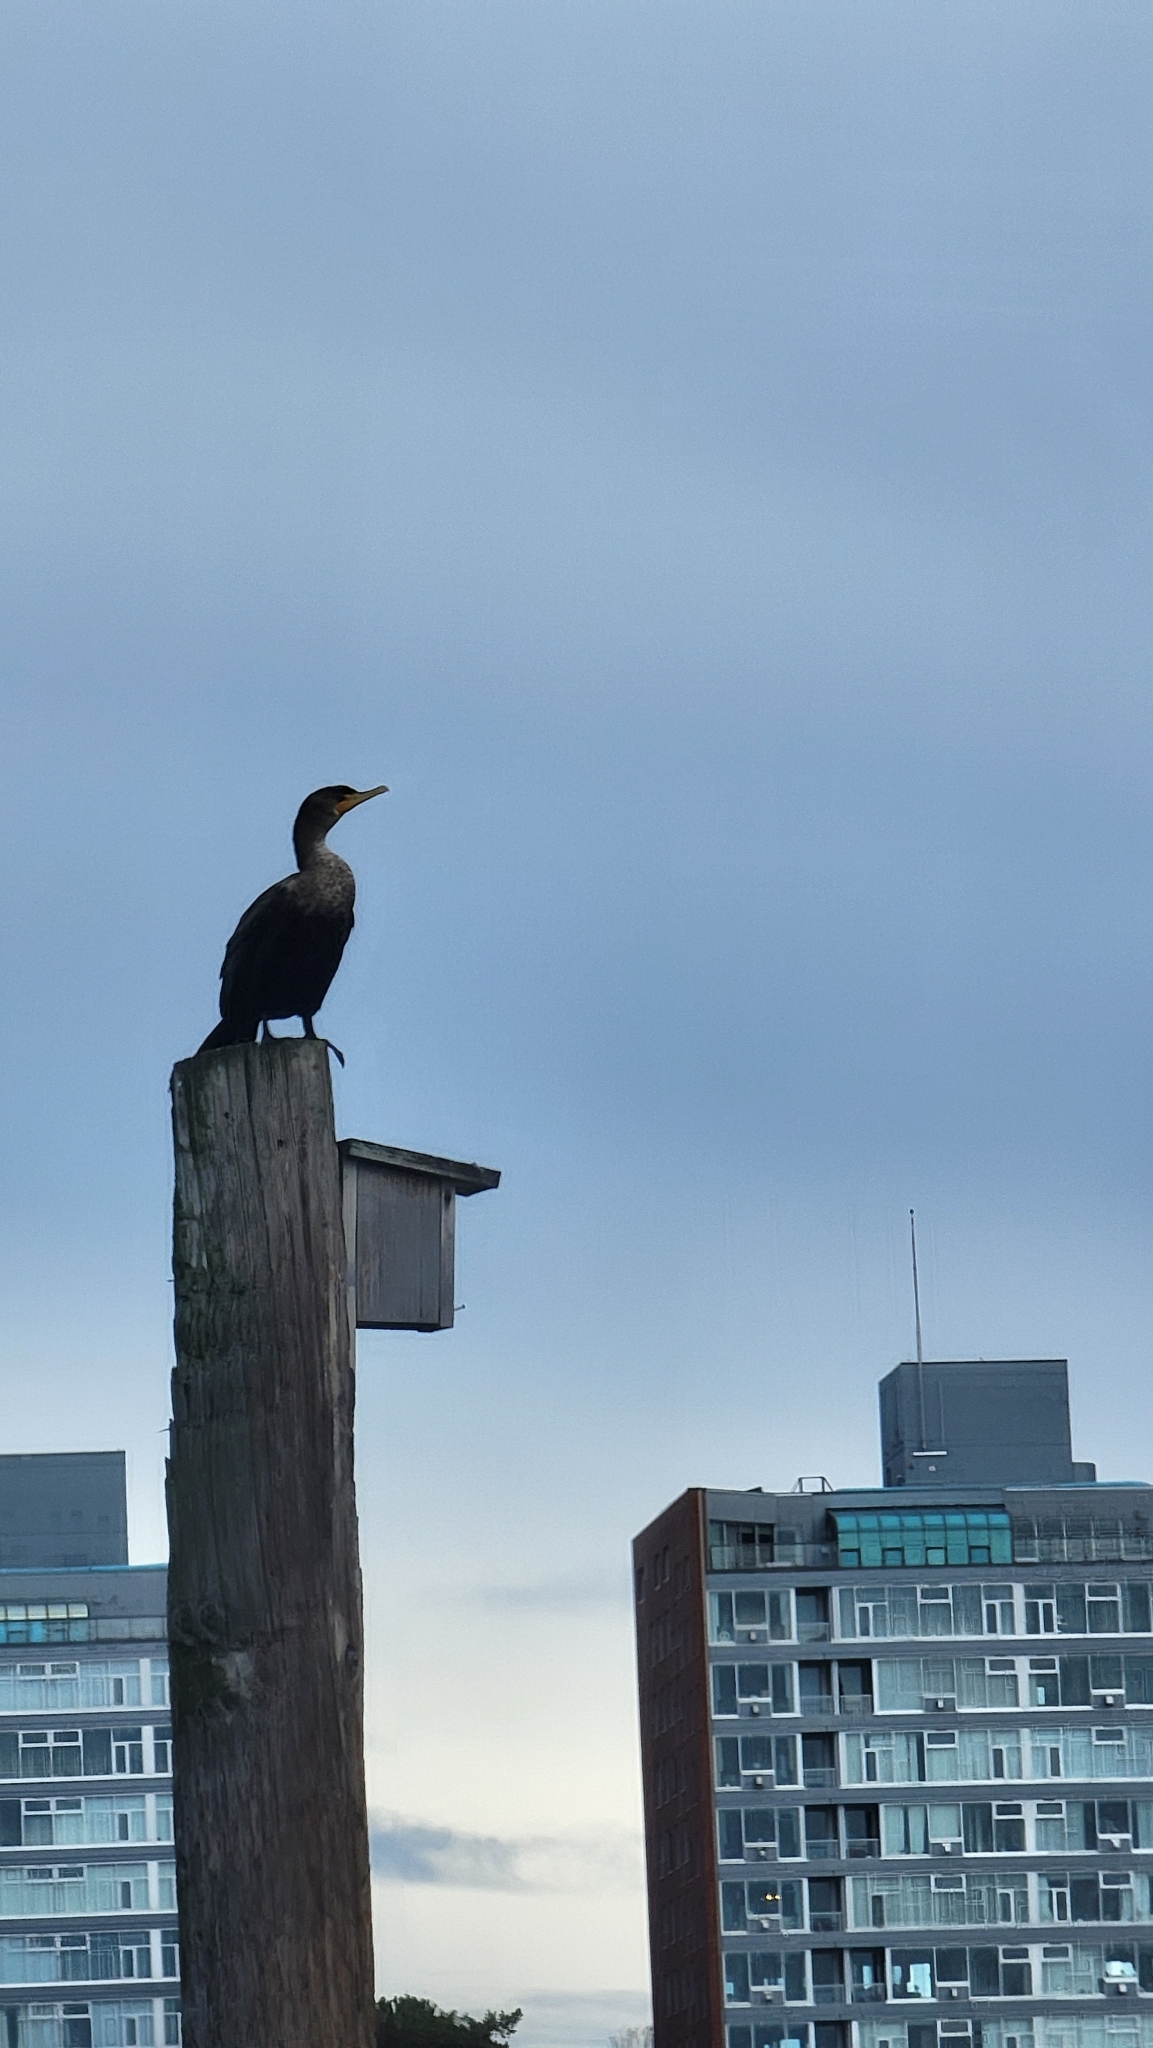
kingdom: Animalia
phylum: Chordata
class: Aves
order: Suliformes
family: Phalacrocoracidae
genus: Phalacrocorax
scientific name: Phalacrocorax auritus
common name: Double-crested cormorant
